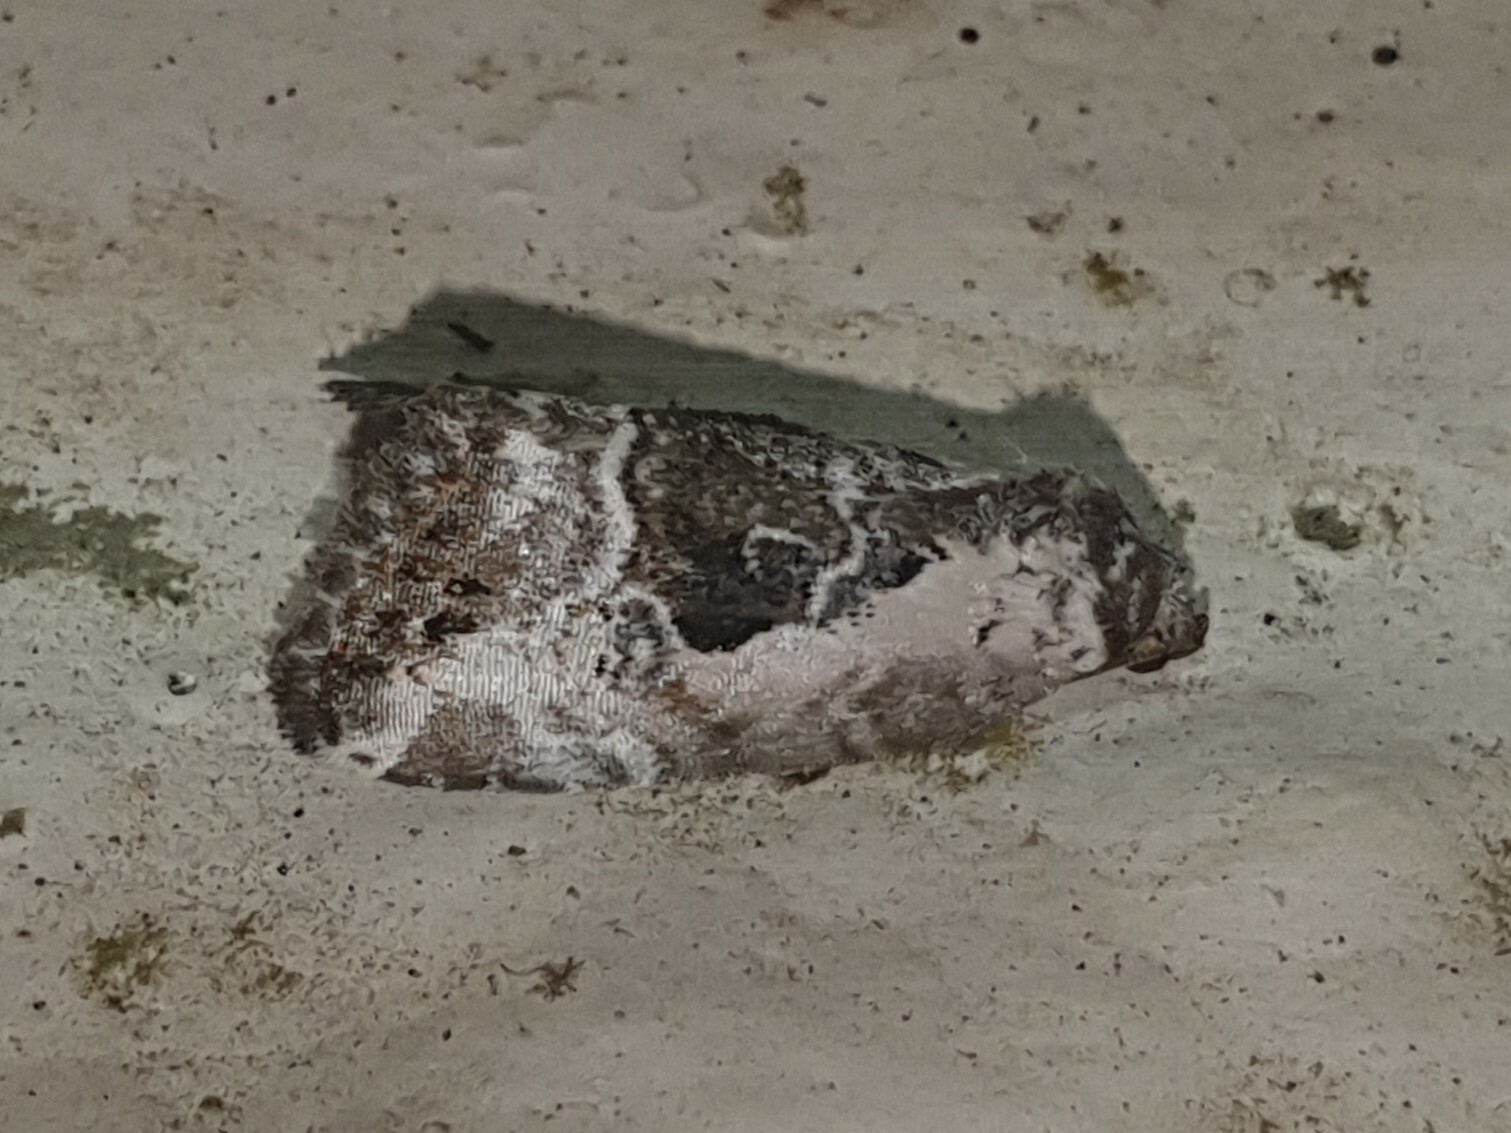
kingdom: Animalia
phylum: Arthropoda
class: Insecta
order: Lepidoptera
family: Noctuidae
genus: Elaphria
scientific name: Elaphria venustula
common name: Rosy marbled
